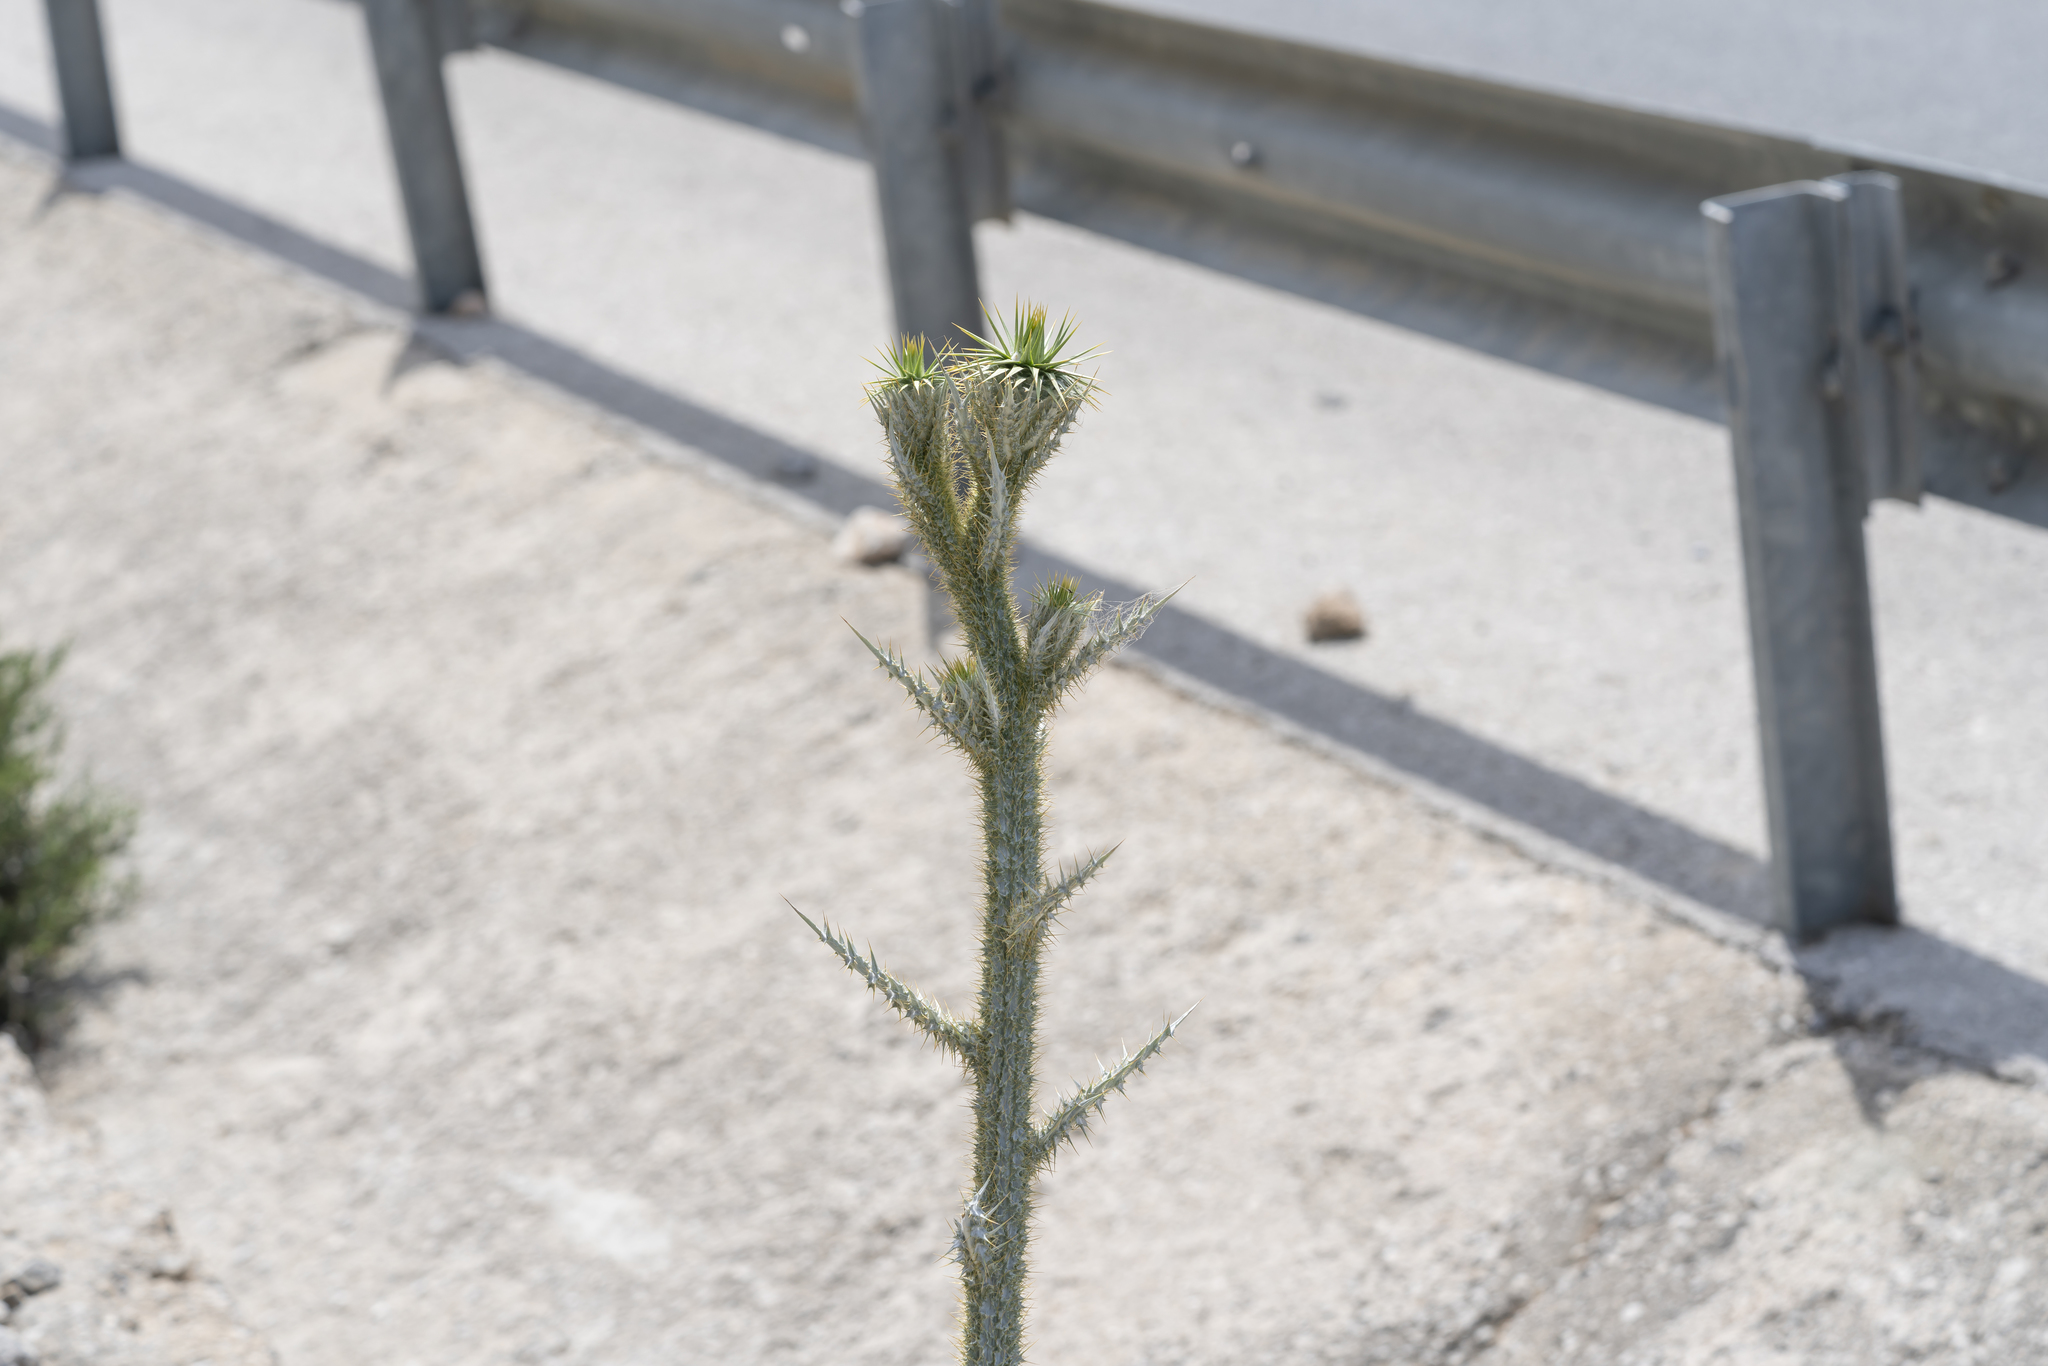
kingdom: Plantae
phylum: Tracheophyta
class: Magnoliopsida
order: Asterales
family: Asteraceae
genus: Onopordum
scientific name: Onopordum bracteatum
